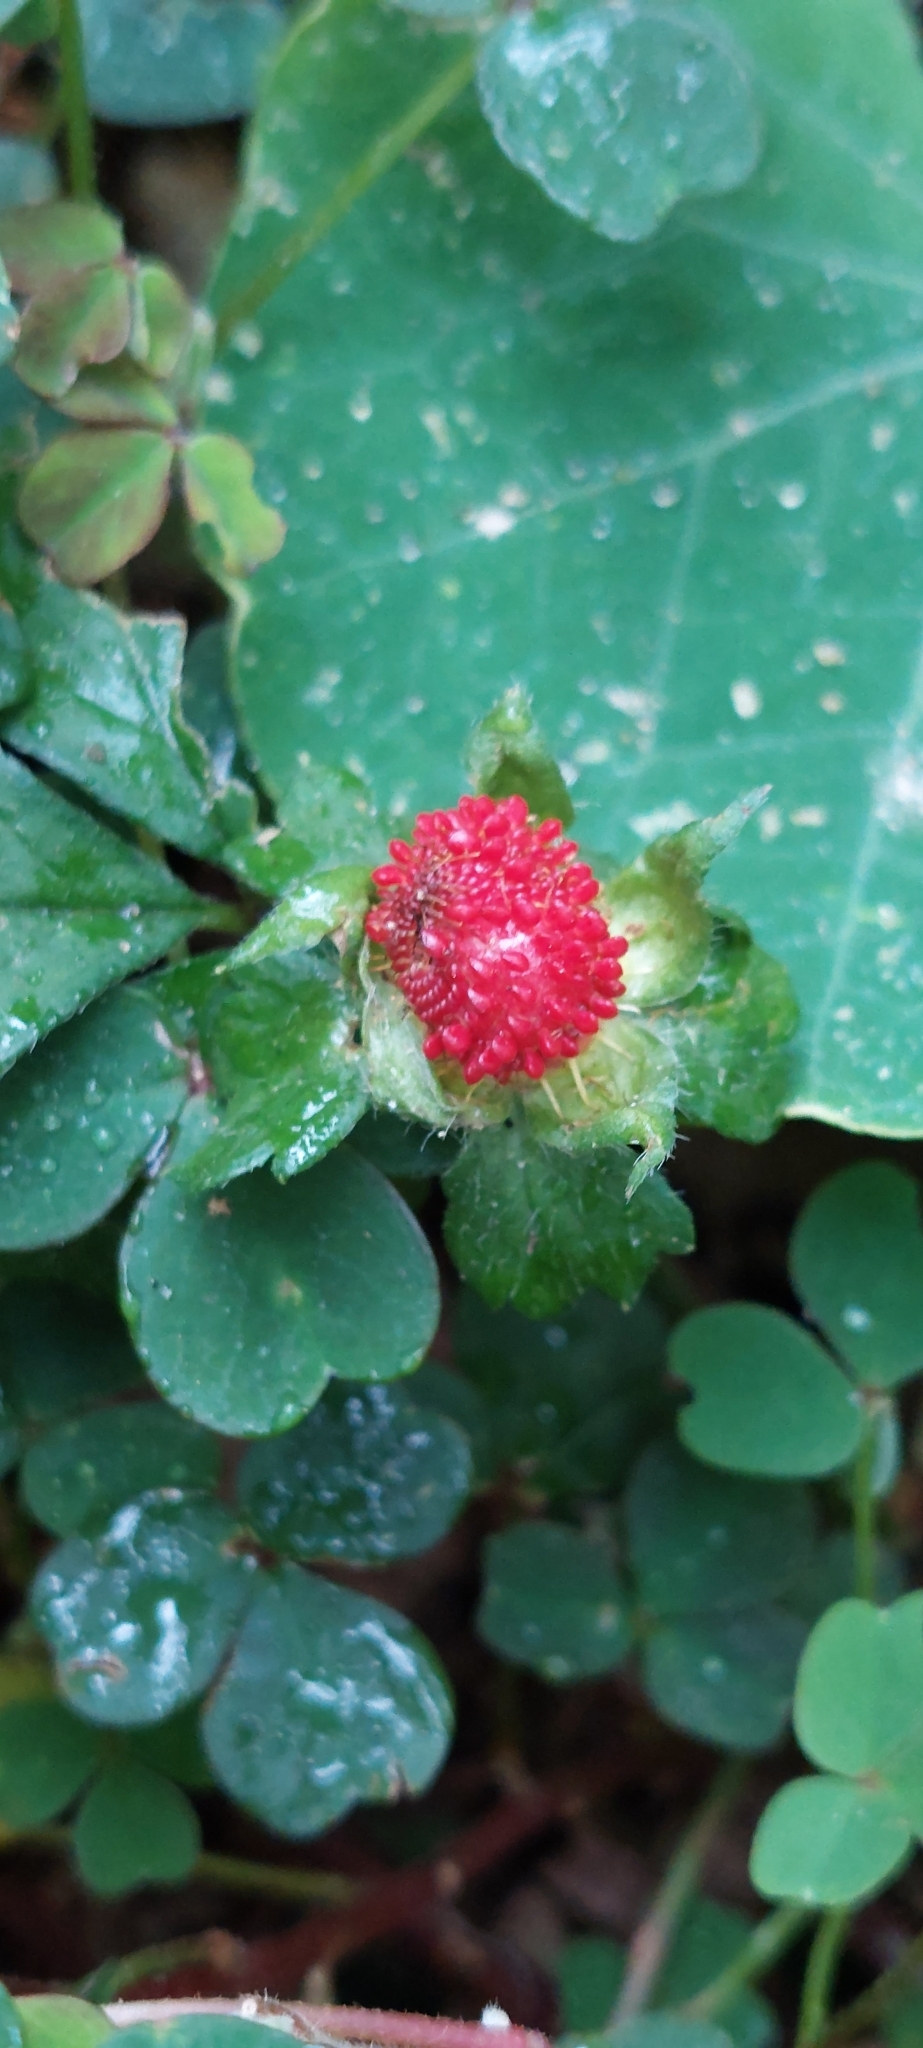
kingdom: Plantae
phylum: Tracheophyta
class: Magnoliopsida
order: Rosales
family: Rosaceae
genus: Potentilla
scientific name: Potentilla indica
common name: Yellow-flowered strawberry
